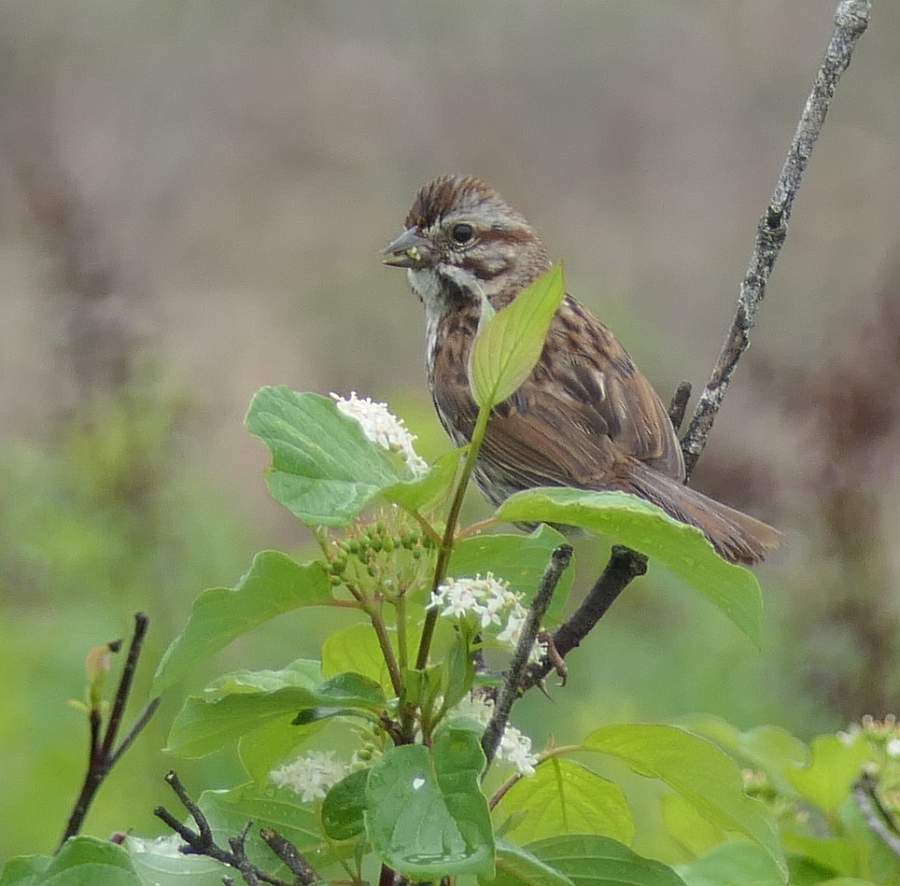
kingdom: Animalia
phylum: Chordata
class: Aves
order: Passeriformes
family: Passerellidae
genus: Melospiza
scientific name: Melospiza melodia
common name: Song sparrow
